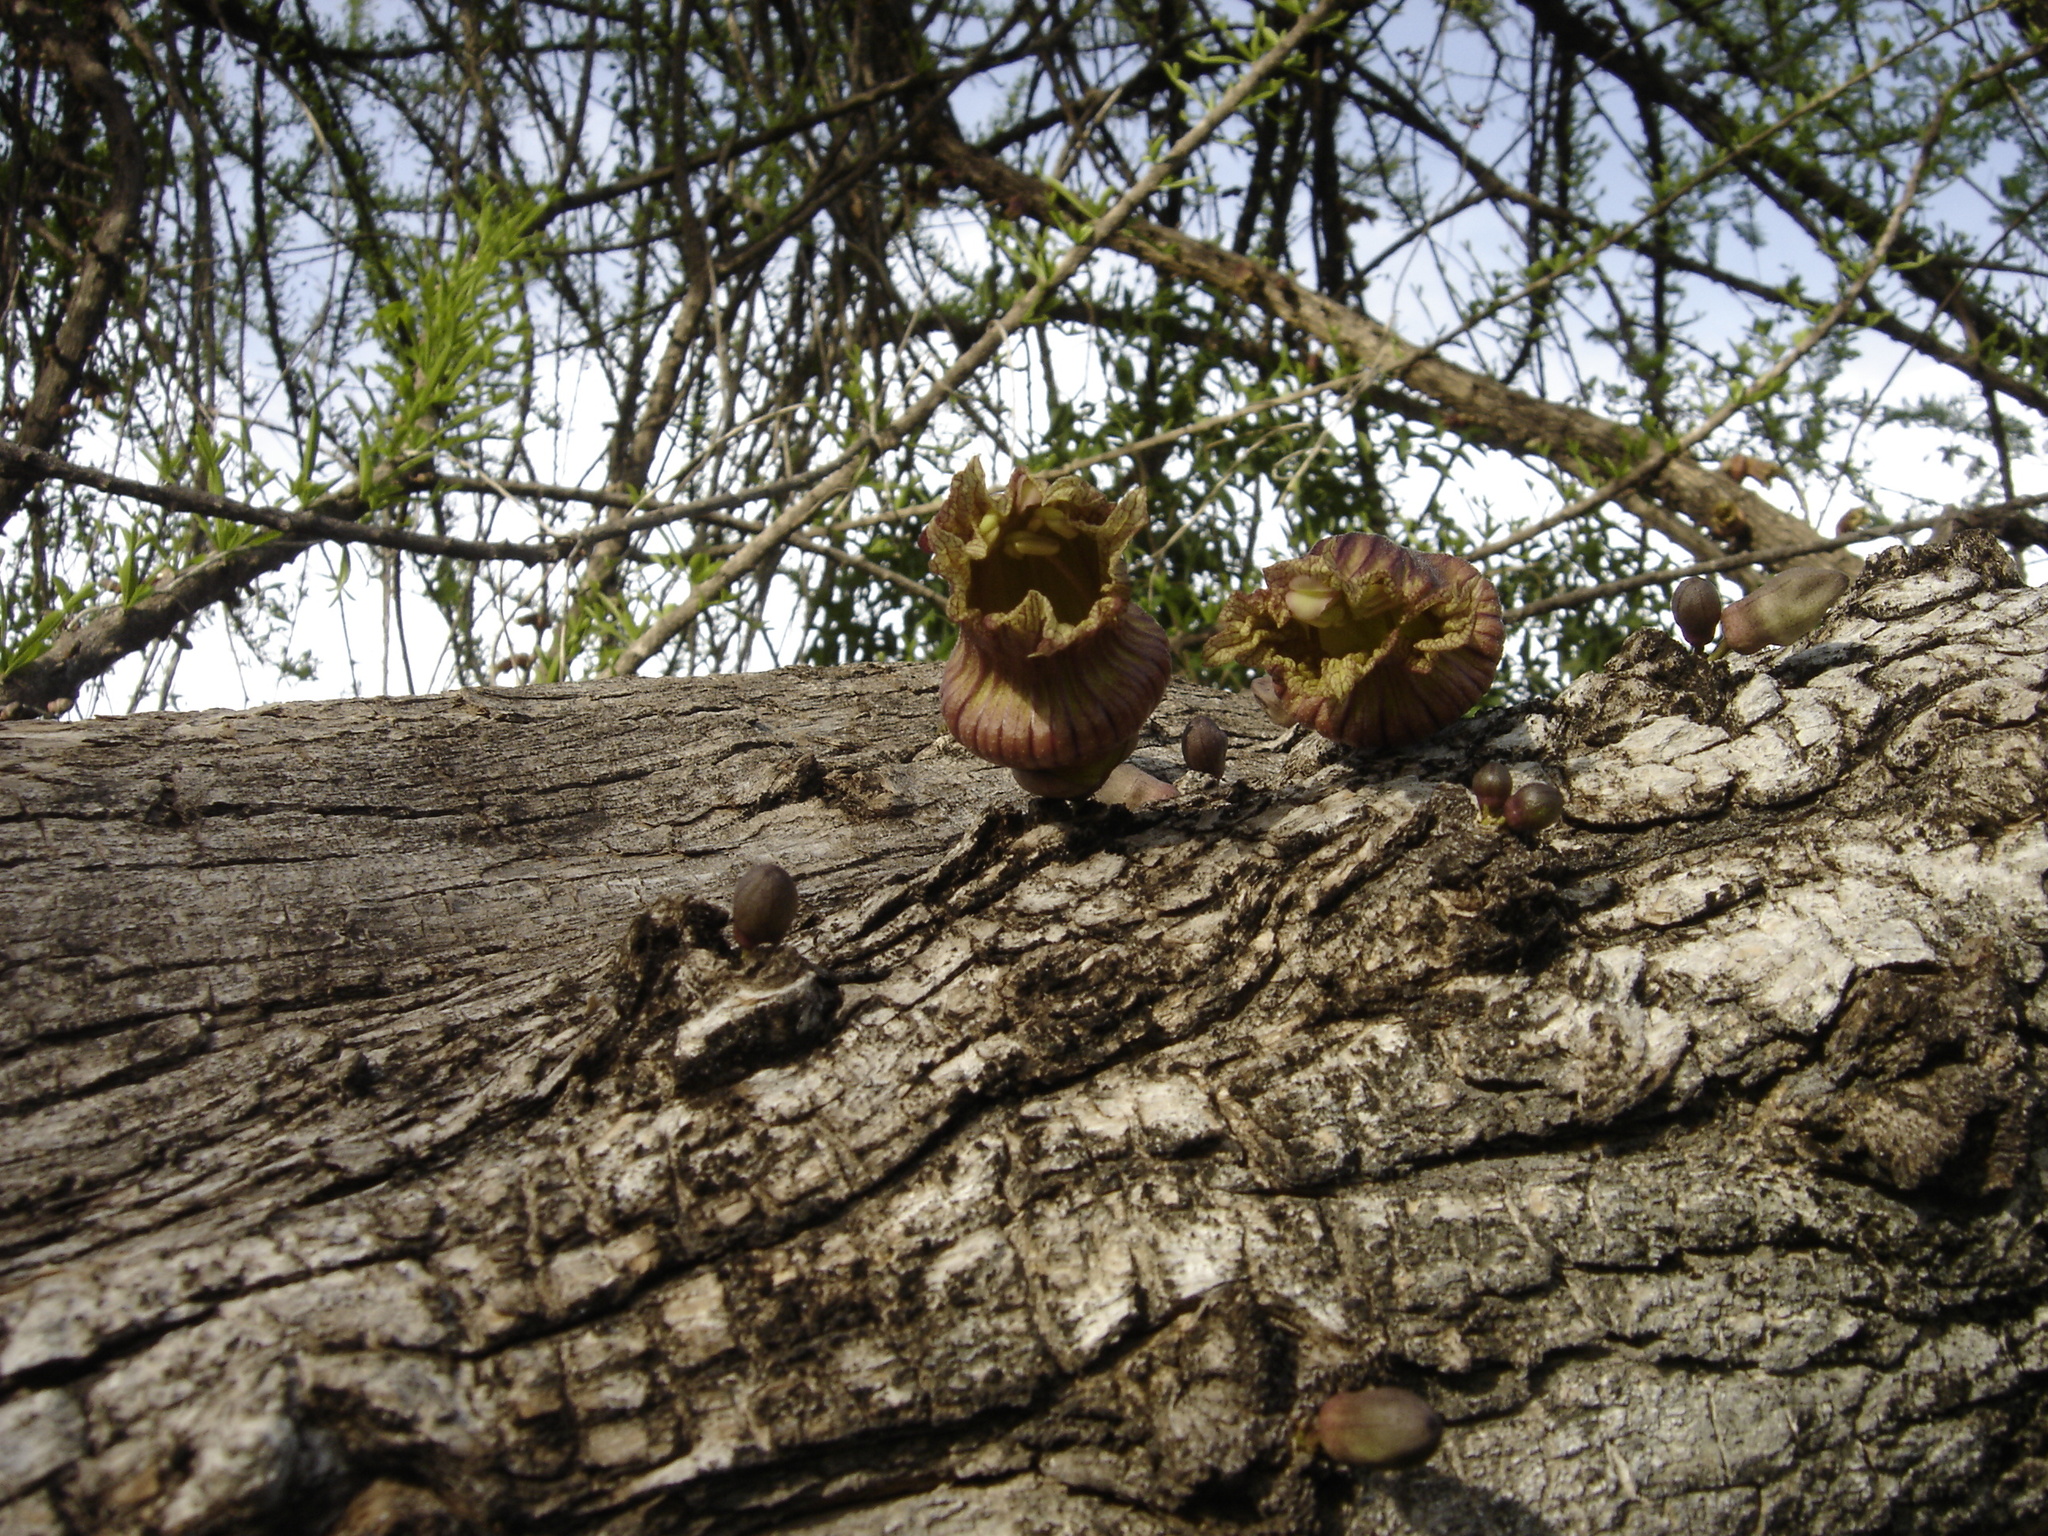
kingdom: Plantae
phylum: Tracheophyta
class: Magnoliopsida
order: Lamiales
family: Bignoniaceae
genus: Crescentia
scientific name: Crescentia alata
